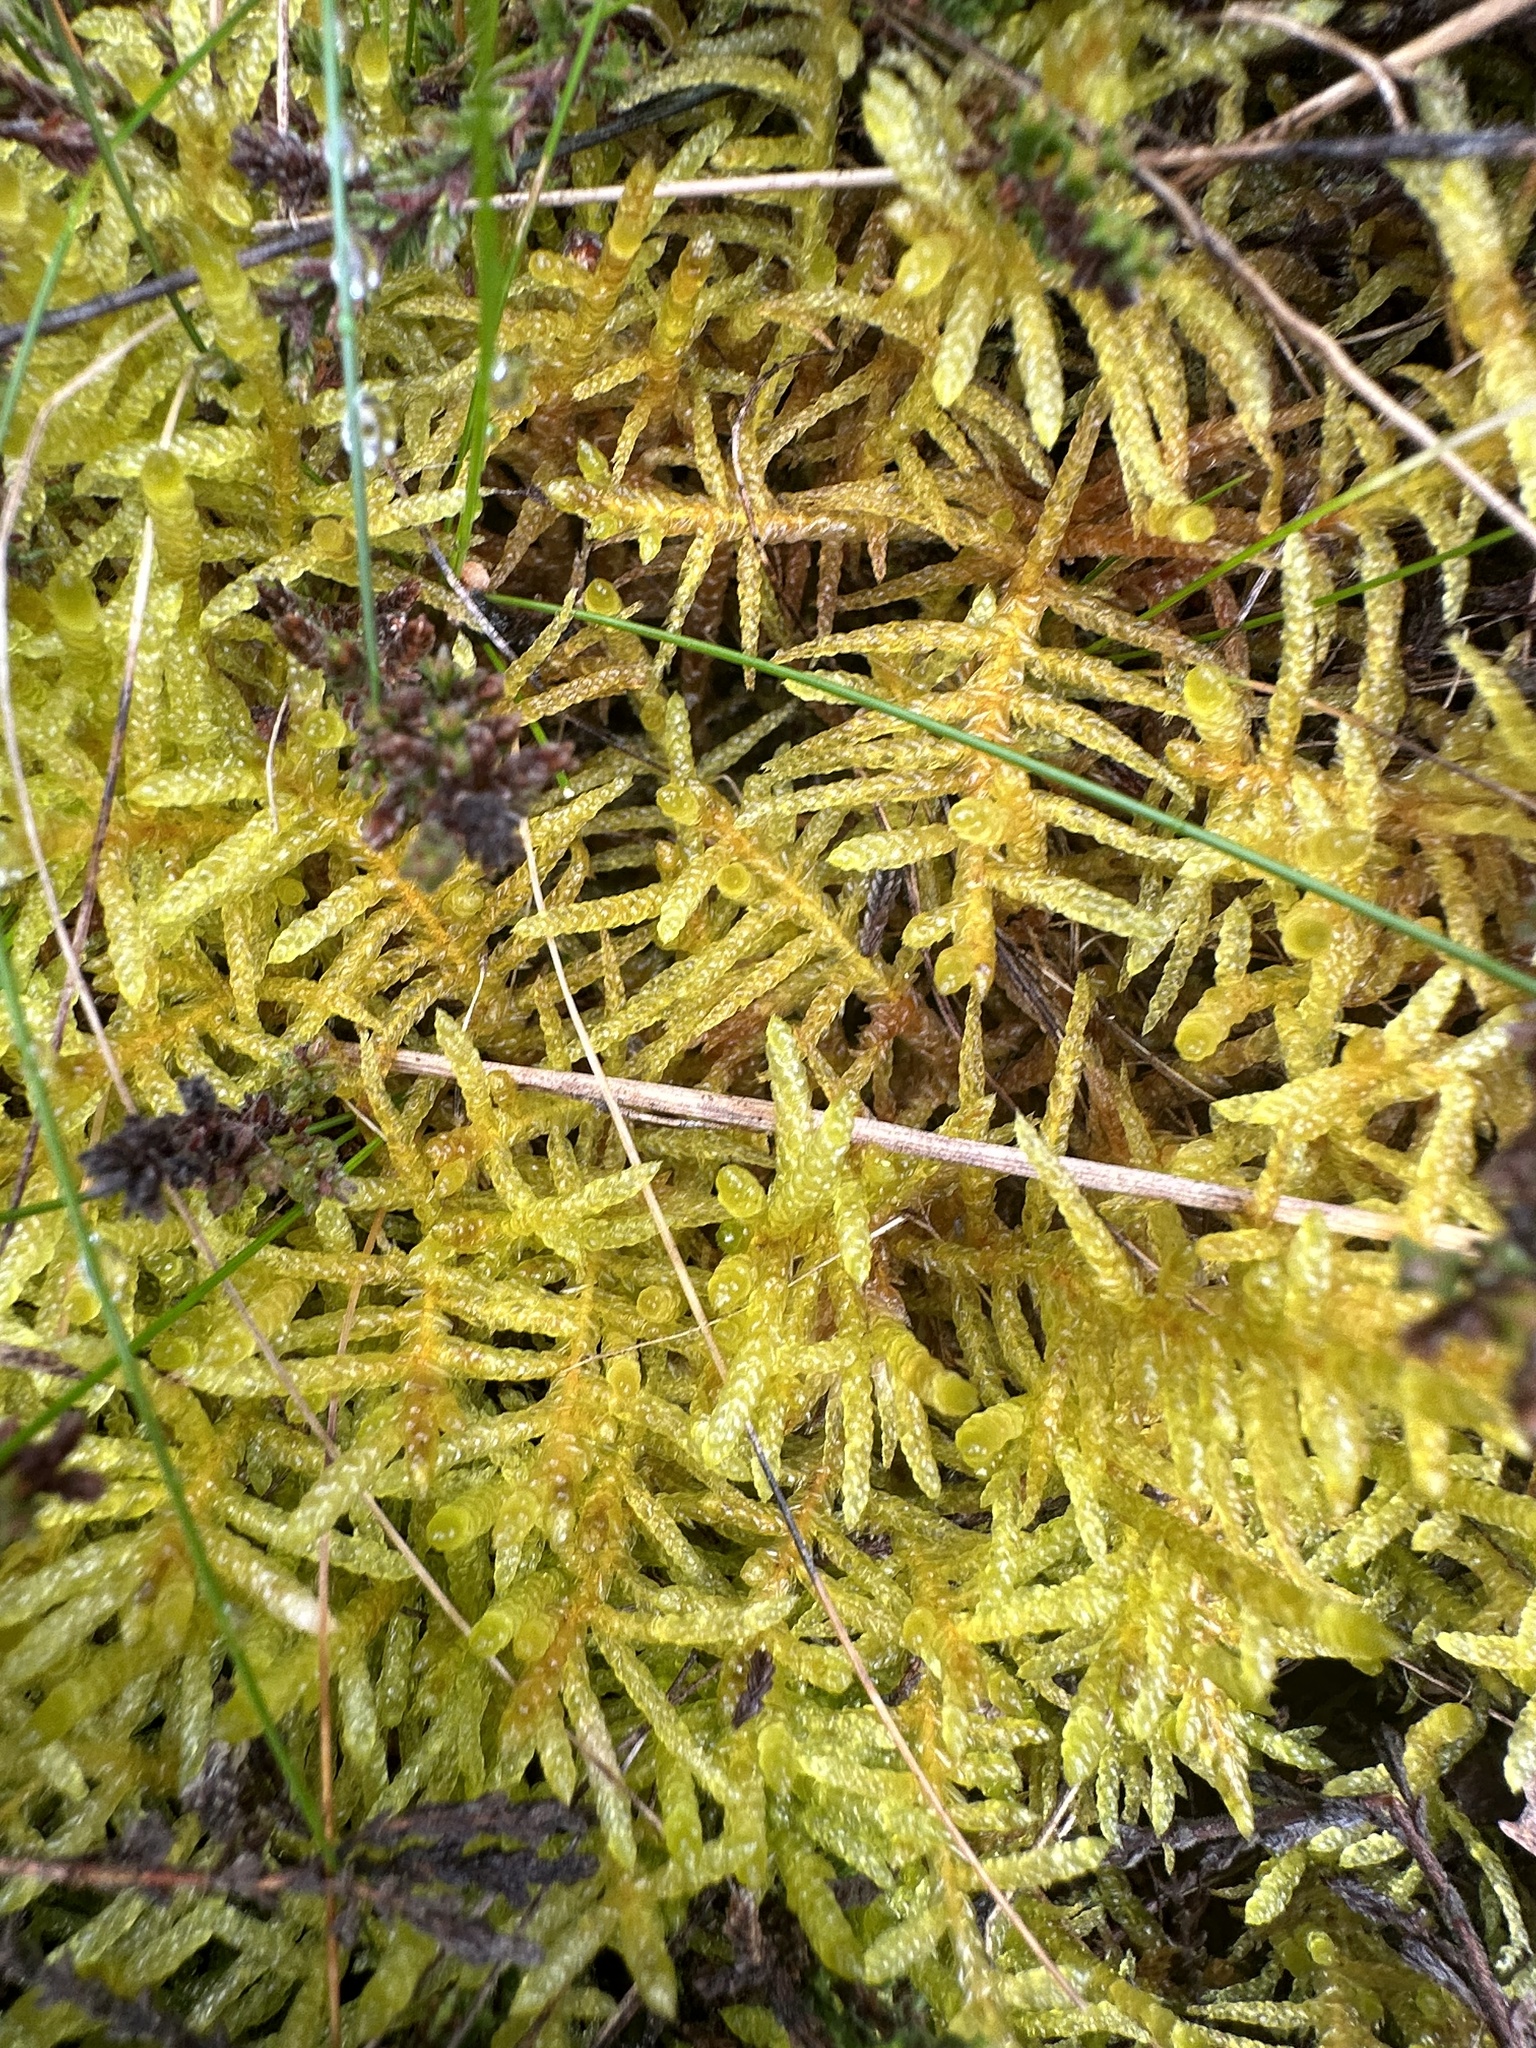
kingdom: Plantae
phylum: Bryophyta
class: Bryopsida
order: Hypnales
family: Brachytheciaceae
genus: Pseudoscleropodium
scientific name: Pseudoscleropodium purum
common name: Neat feather-moss
